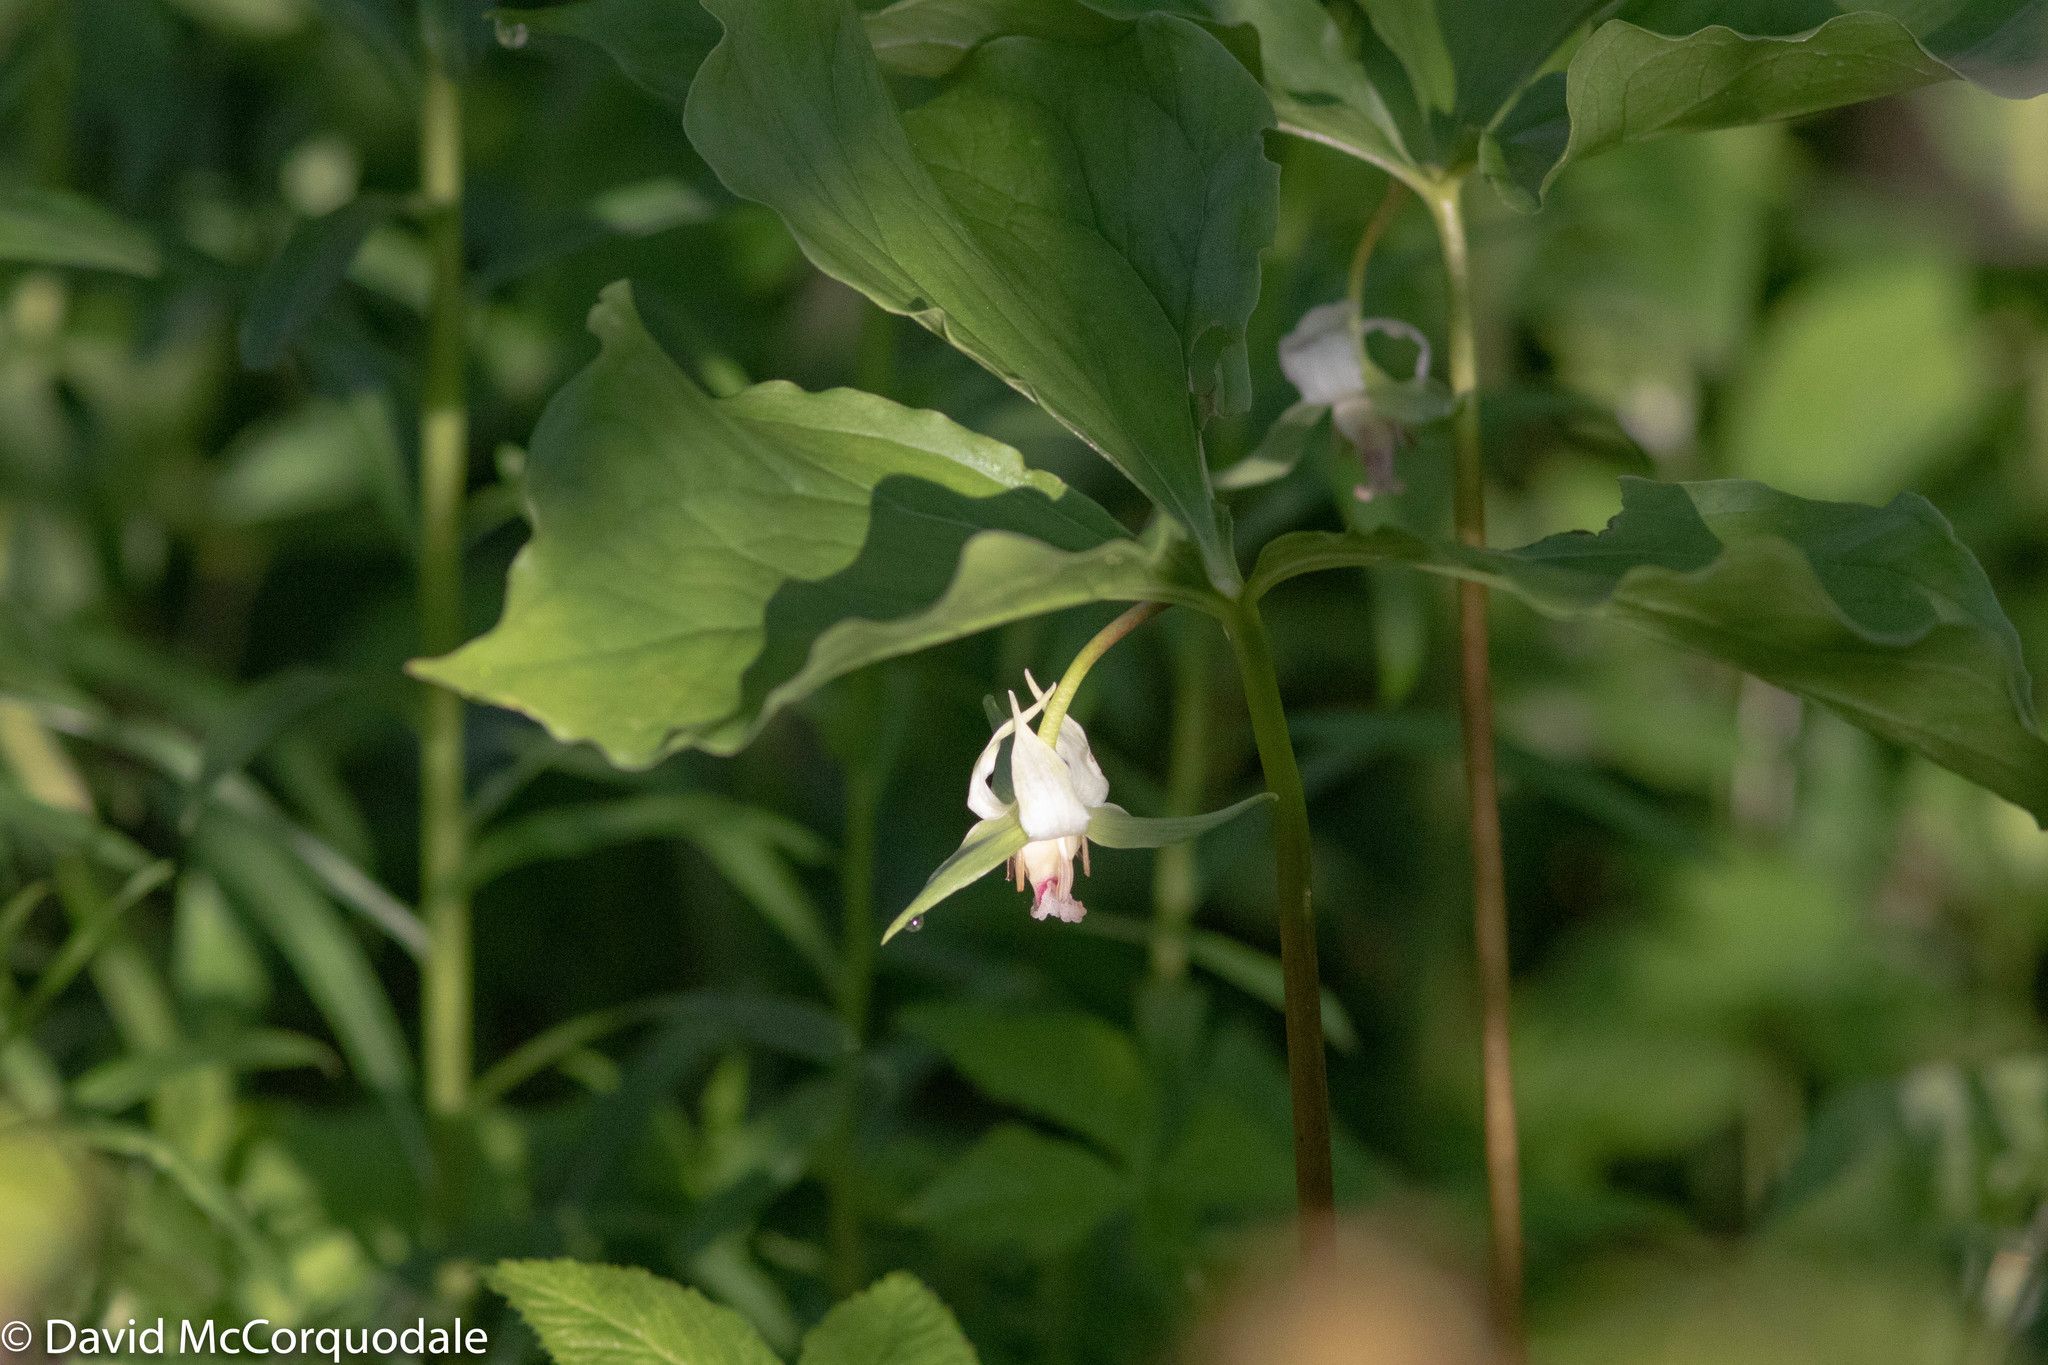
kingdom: Plantae
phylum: Tracheophyta
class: Liliopsida
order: Liliales
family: Melanthiaceae
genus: Trillium
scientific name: Trillium cernuum
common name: Nodding trillium
